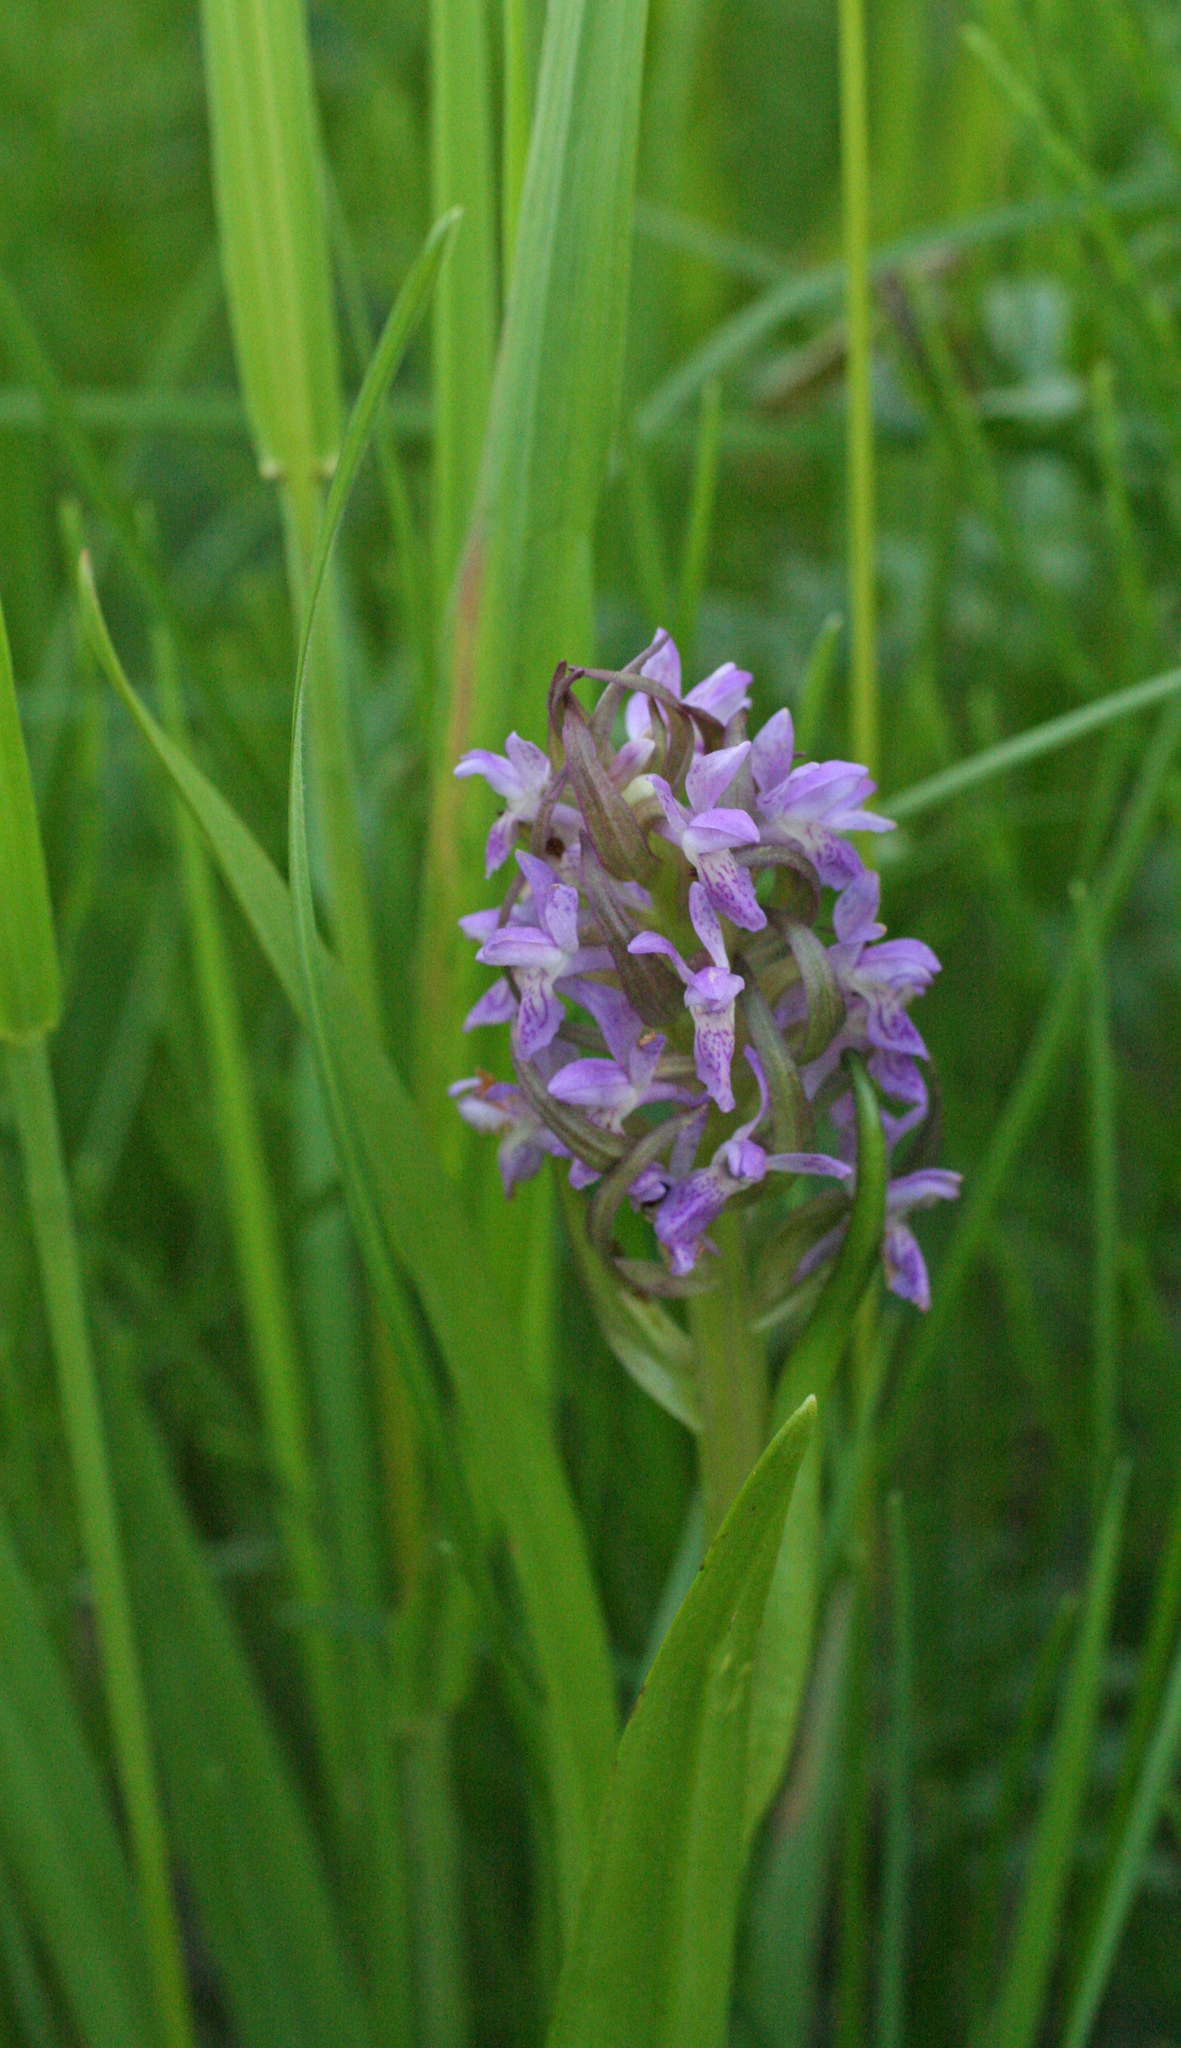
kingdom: Plantae
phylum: Tracheophyta
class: Liliopsida
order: Asparagales
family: Orchidaceae
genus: Dactylorhiza
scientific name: Dactylorhiza incarnata
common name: Early marsh-orchid
